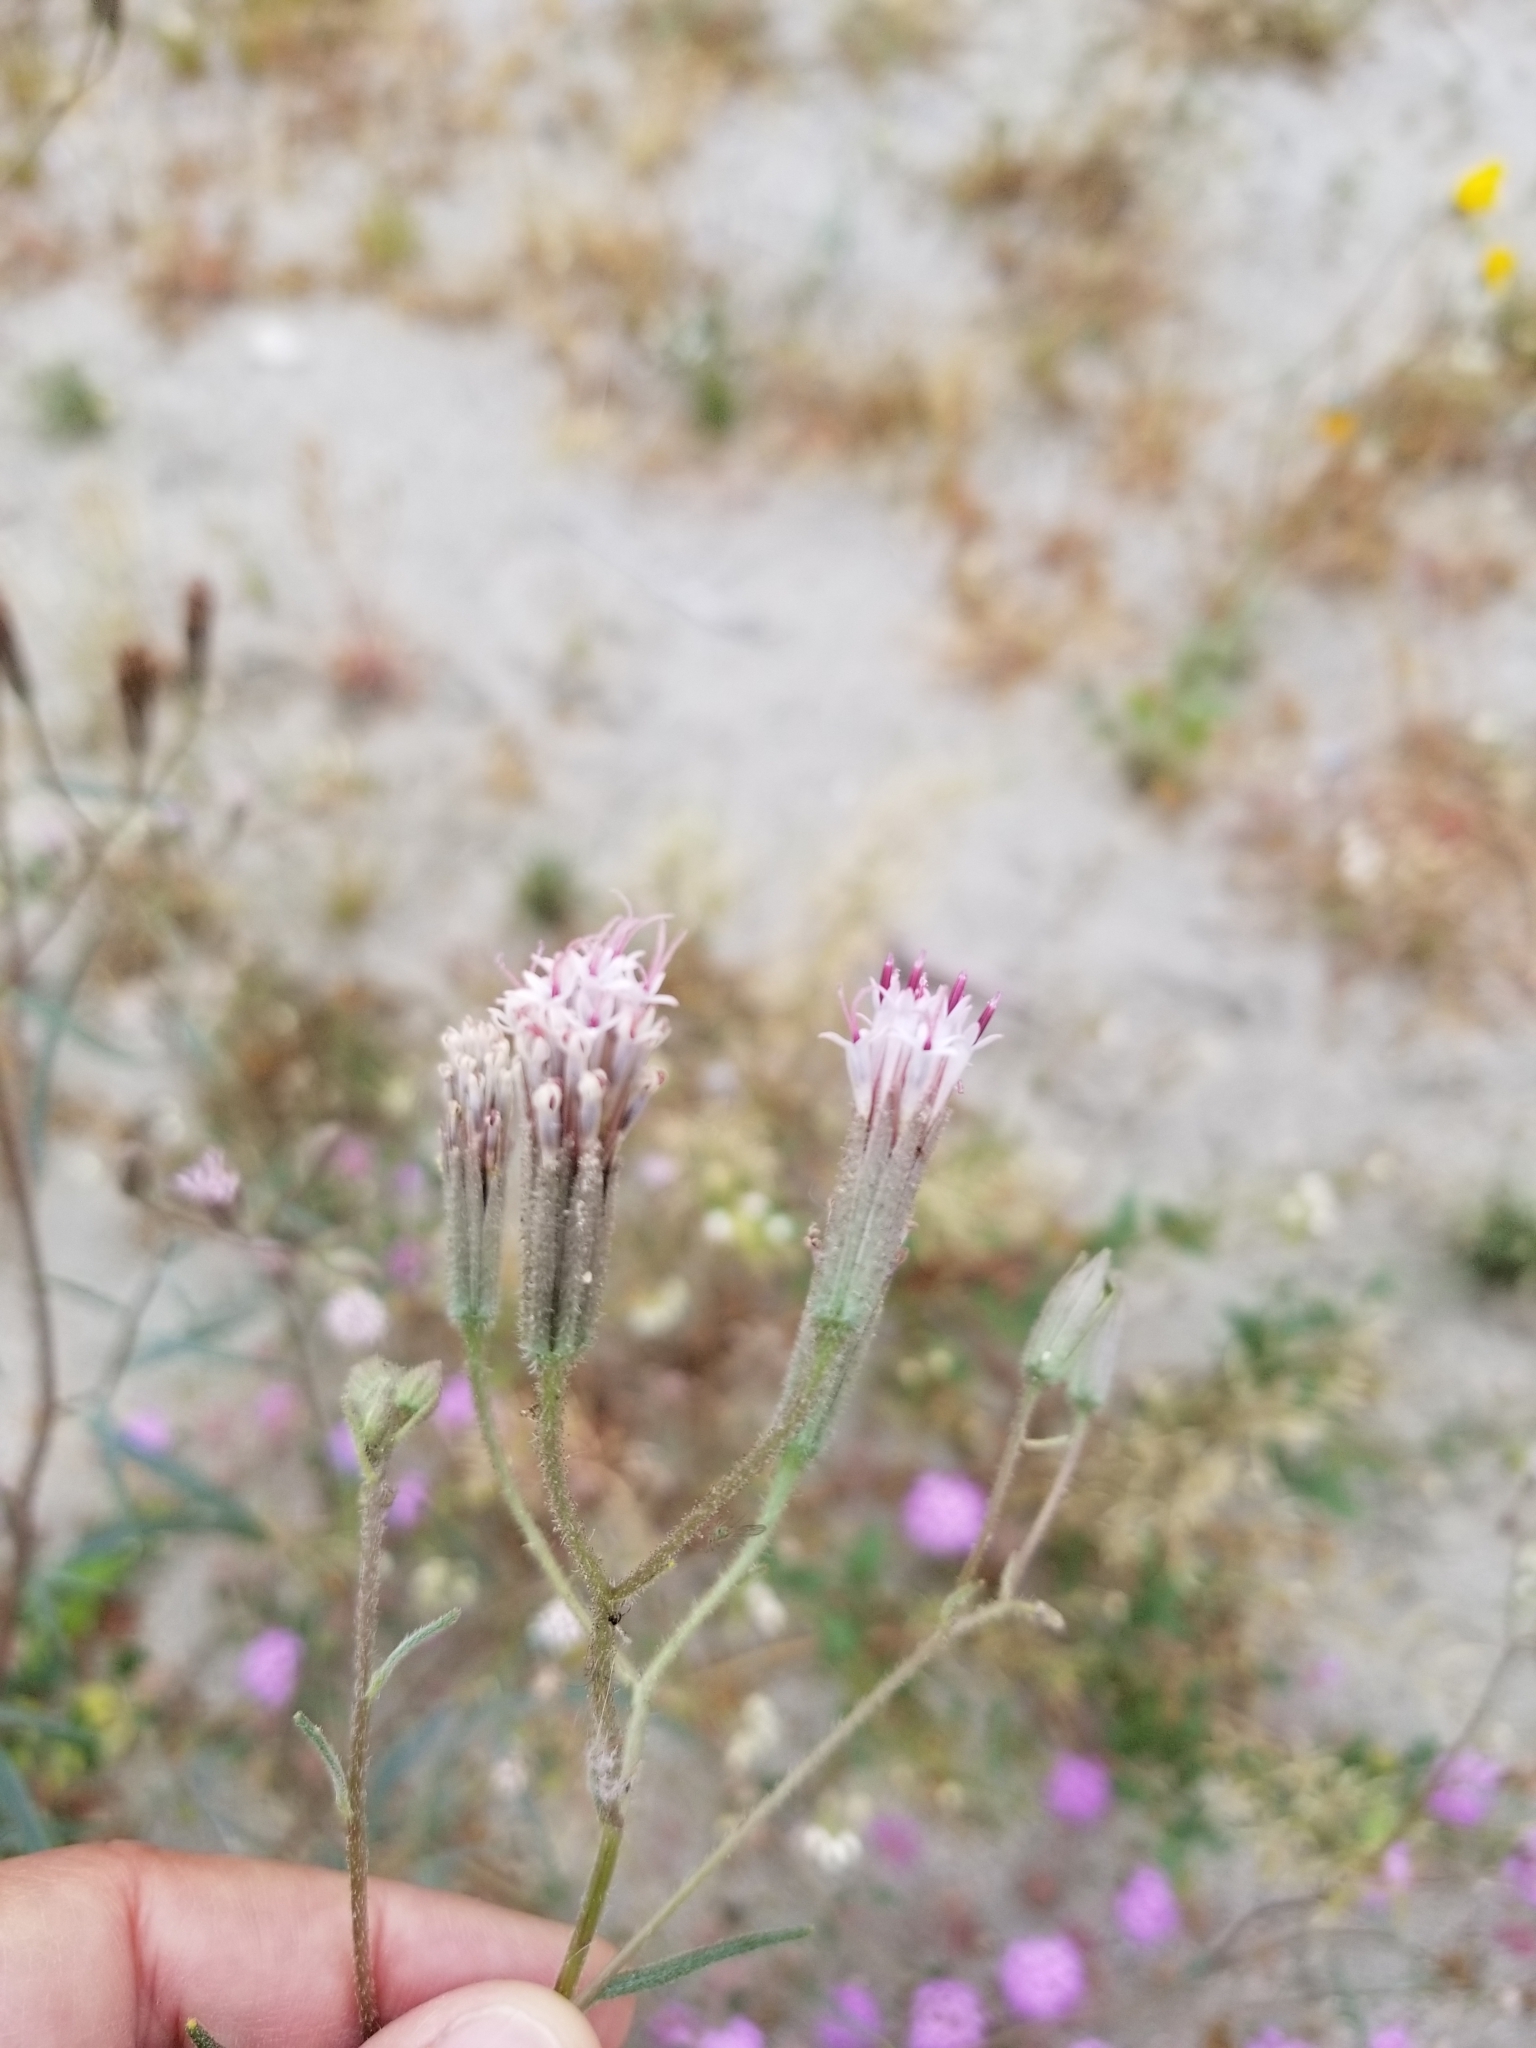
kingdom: Plantae
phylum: Tracheophyta
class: Magnoliopsida
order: Asterales
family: Asteraceae
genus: Palafoxia
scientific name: Palafoxia arida
